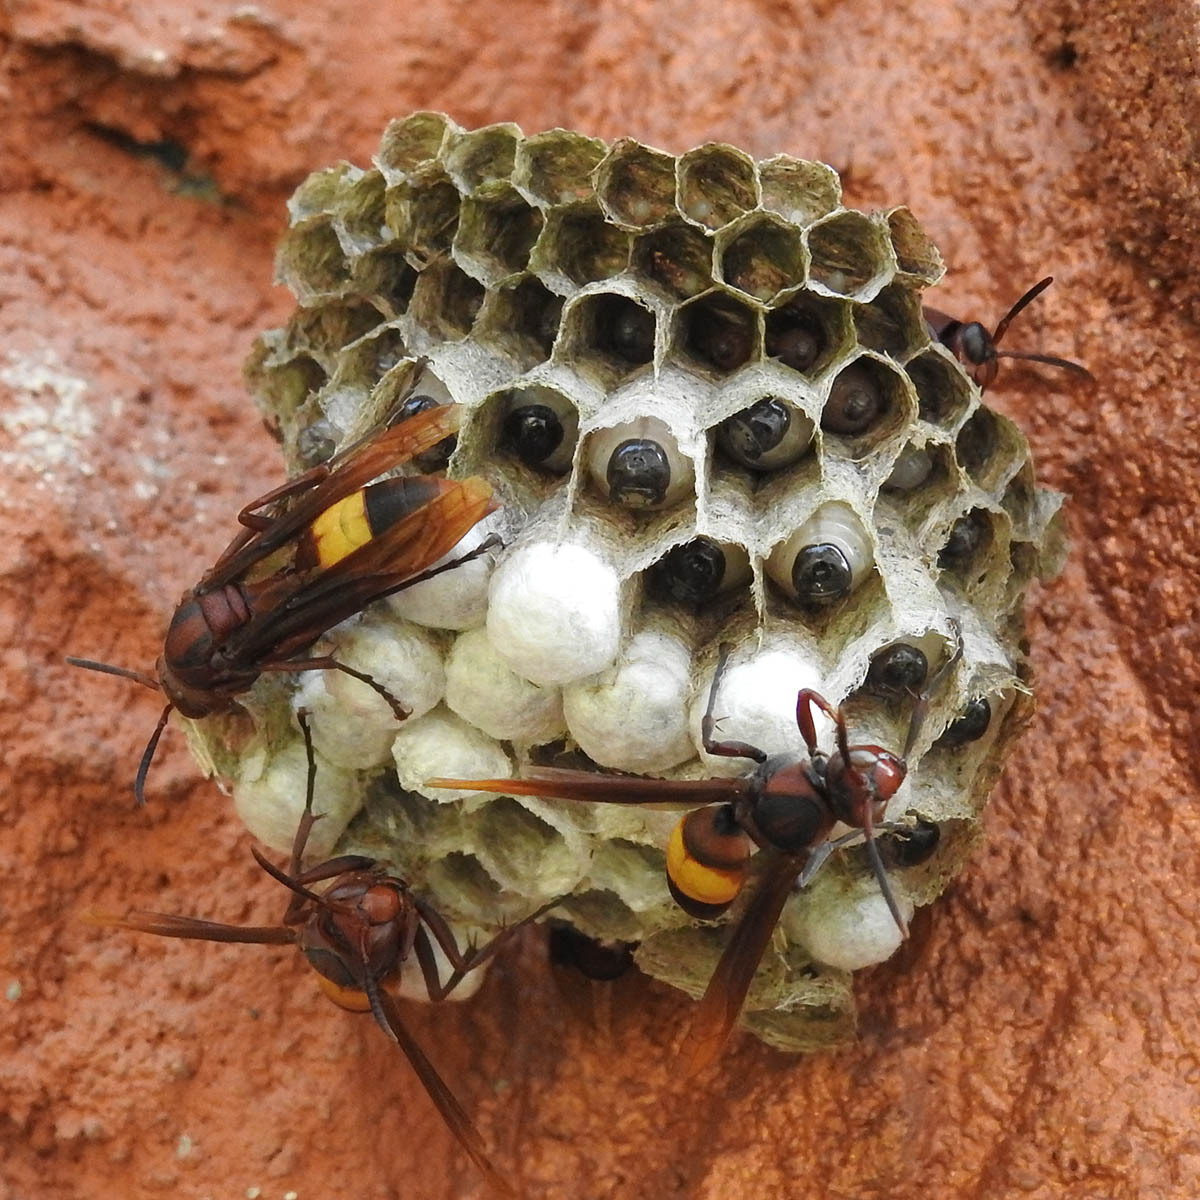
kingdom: Animalia
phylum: Arthropoda
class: Insecta
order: Hymenoptera
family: Eumenidae
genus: Polistes
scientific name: Polistes sagittarius
